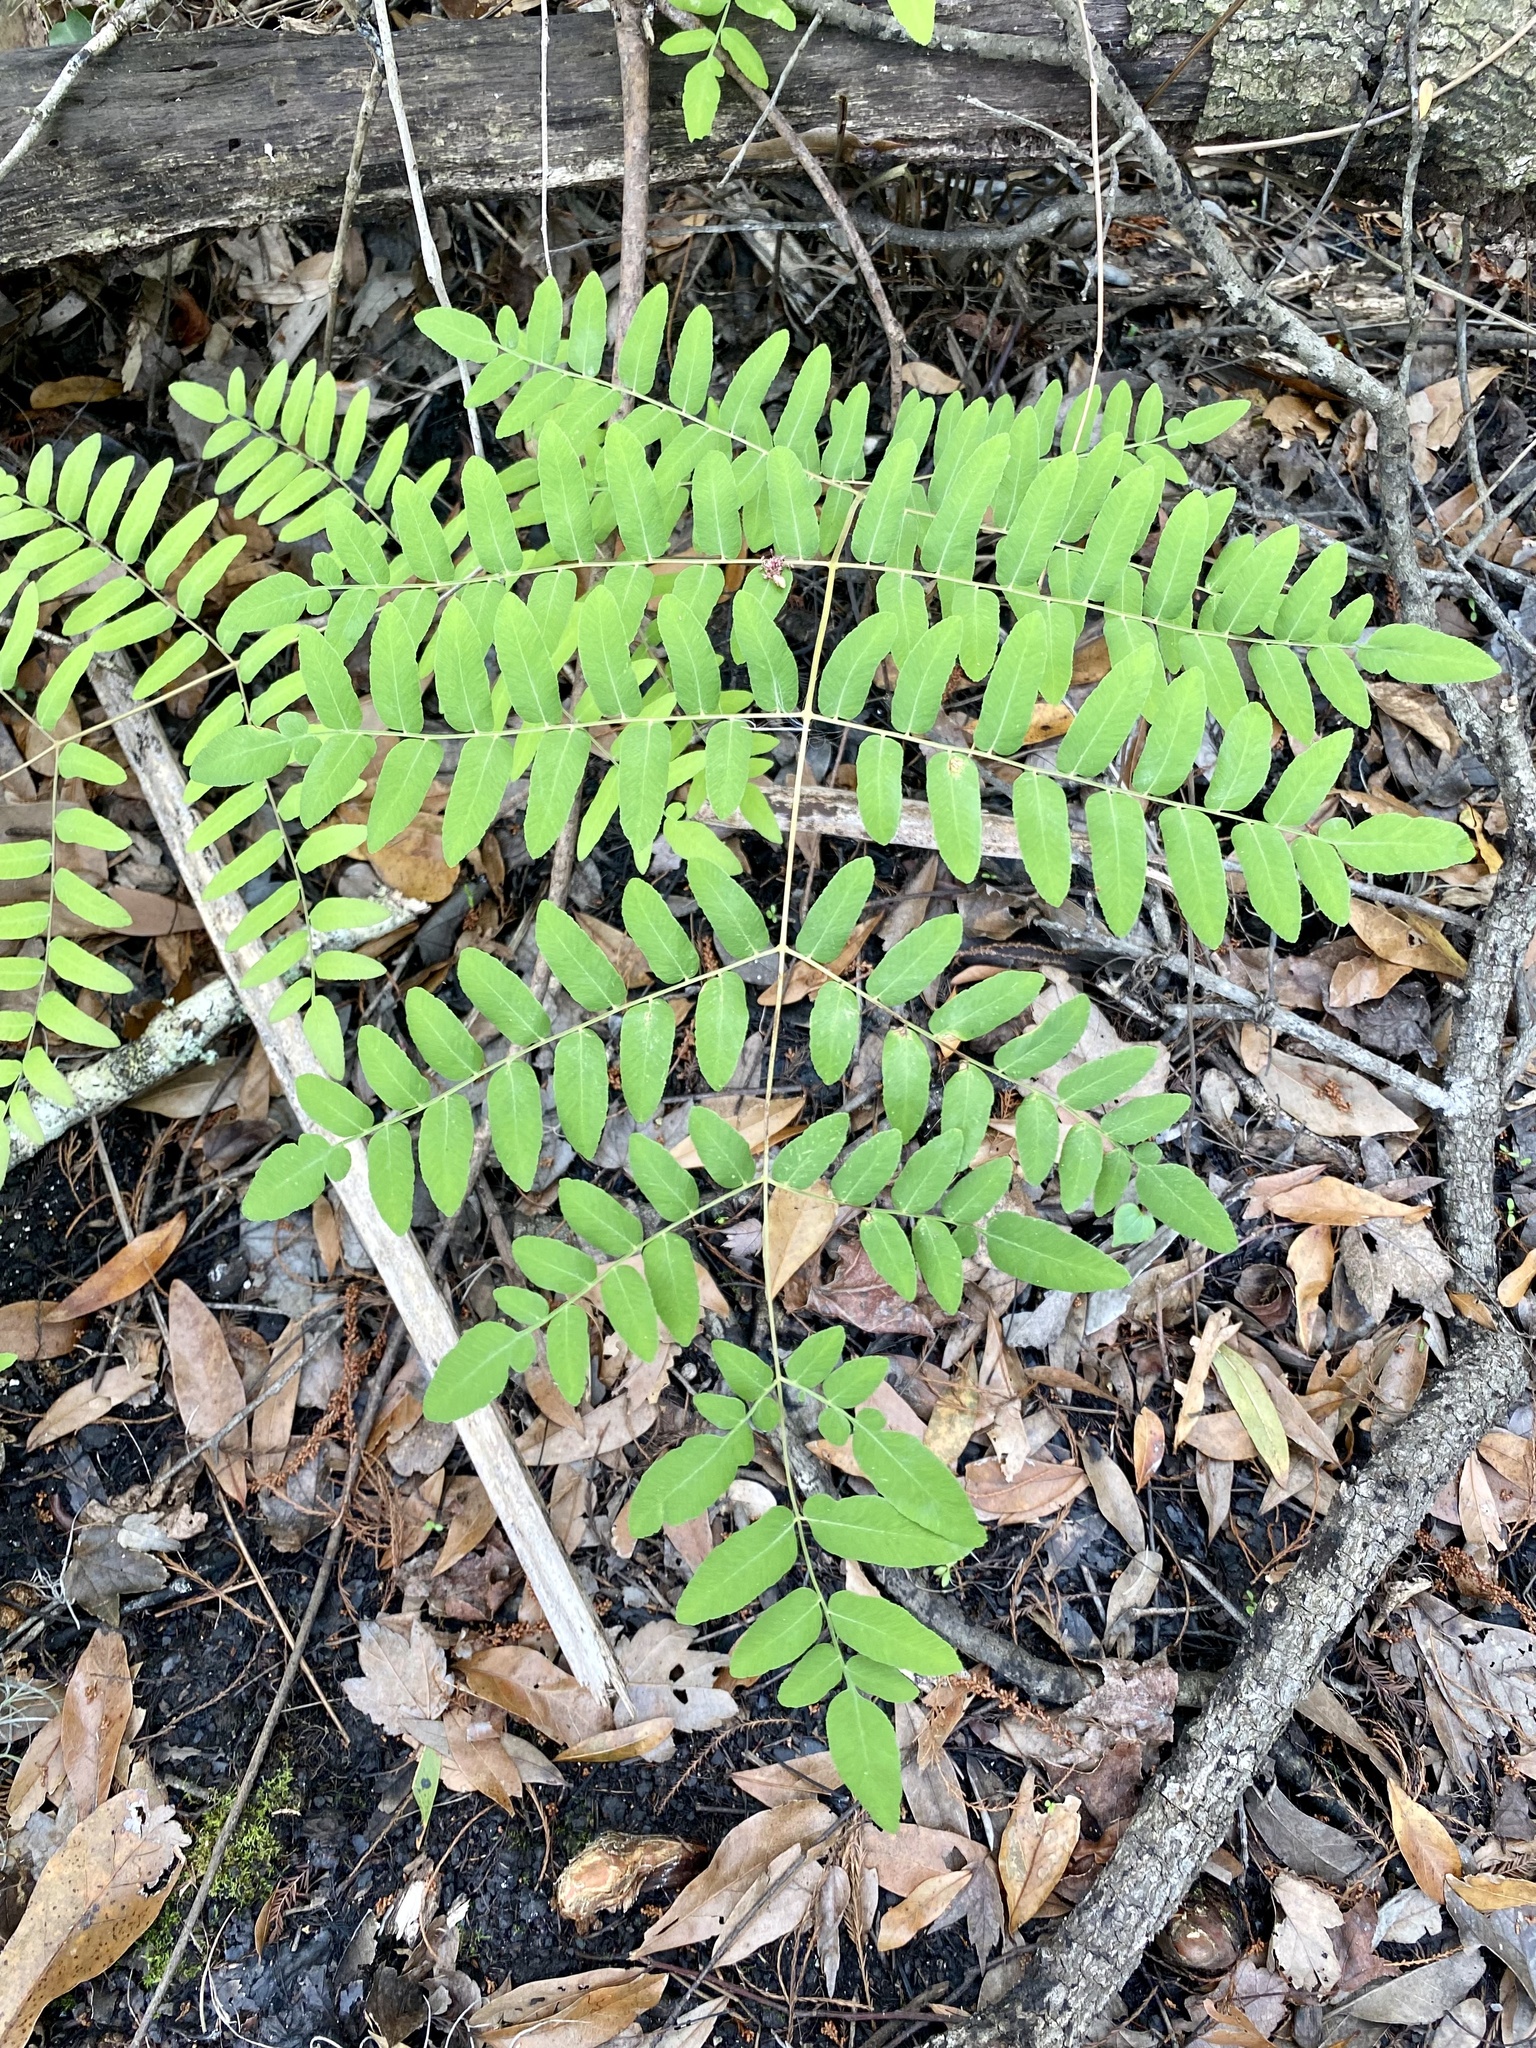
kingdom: Plantae
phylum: Tracheophyta
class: Polypodiopsida
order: Osmundales
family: Osmundaceae
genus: Osmunda
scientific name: Osmunda spectabilis
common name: American royal fern
